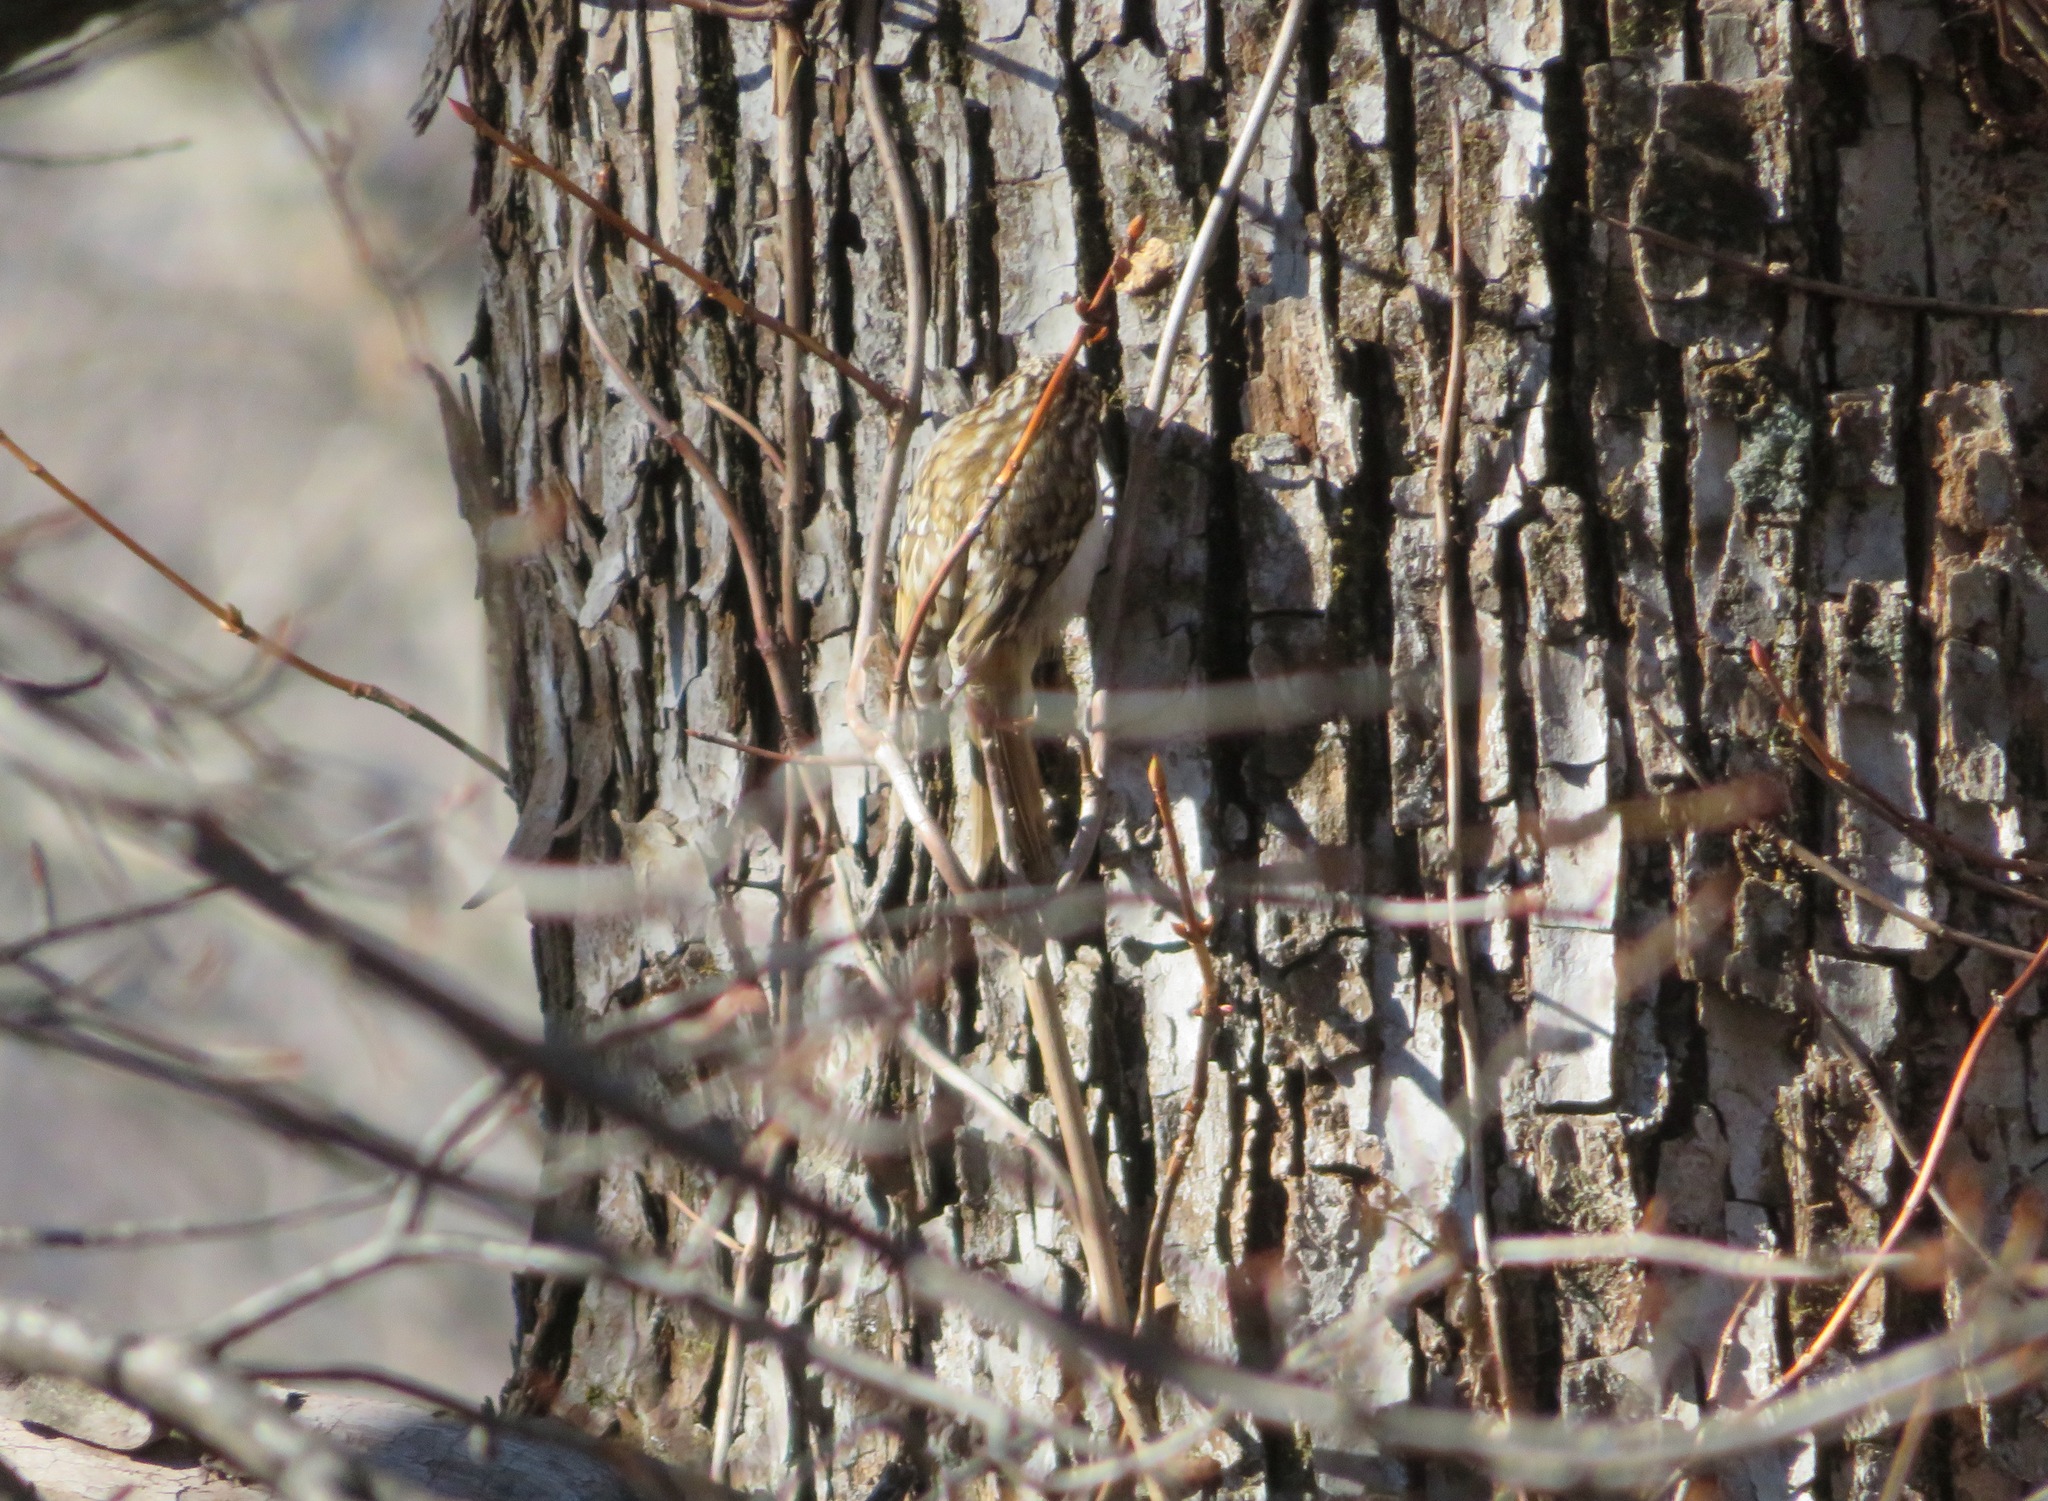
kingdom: Animalia
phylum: Chordata
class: Aves
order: Passeriformes
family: Certhiidae
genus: Certhia
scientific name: Certhia familiaris
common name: Eurasian treecreeper
